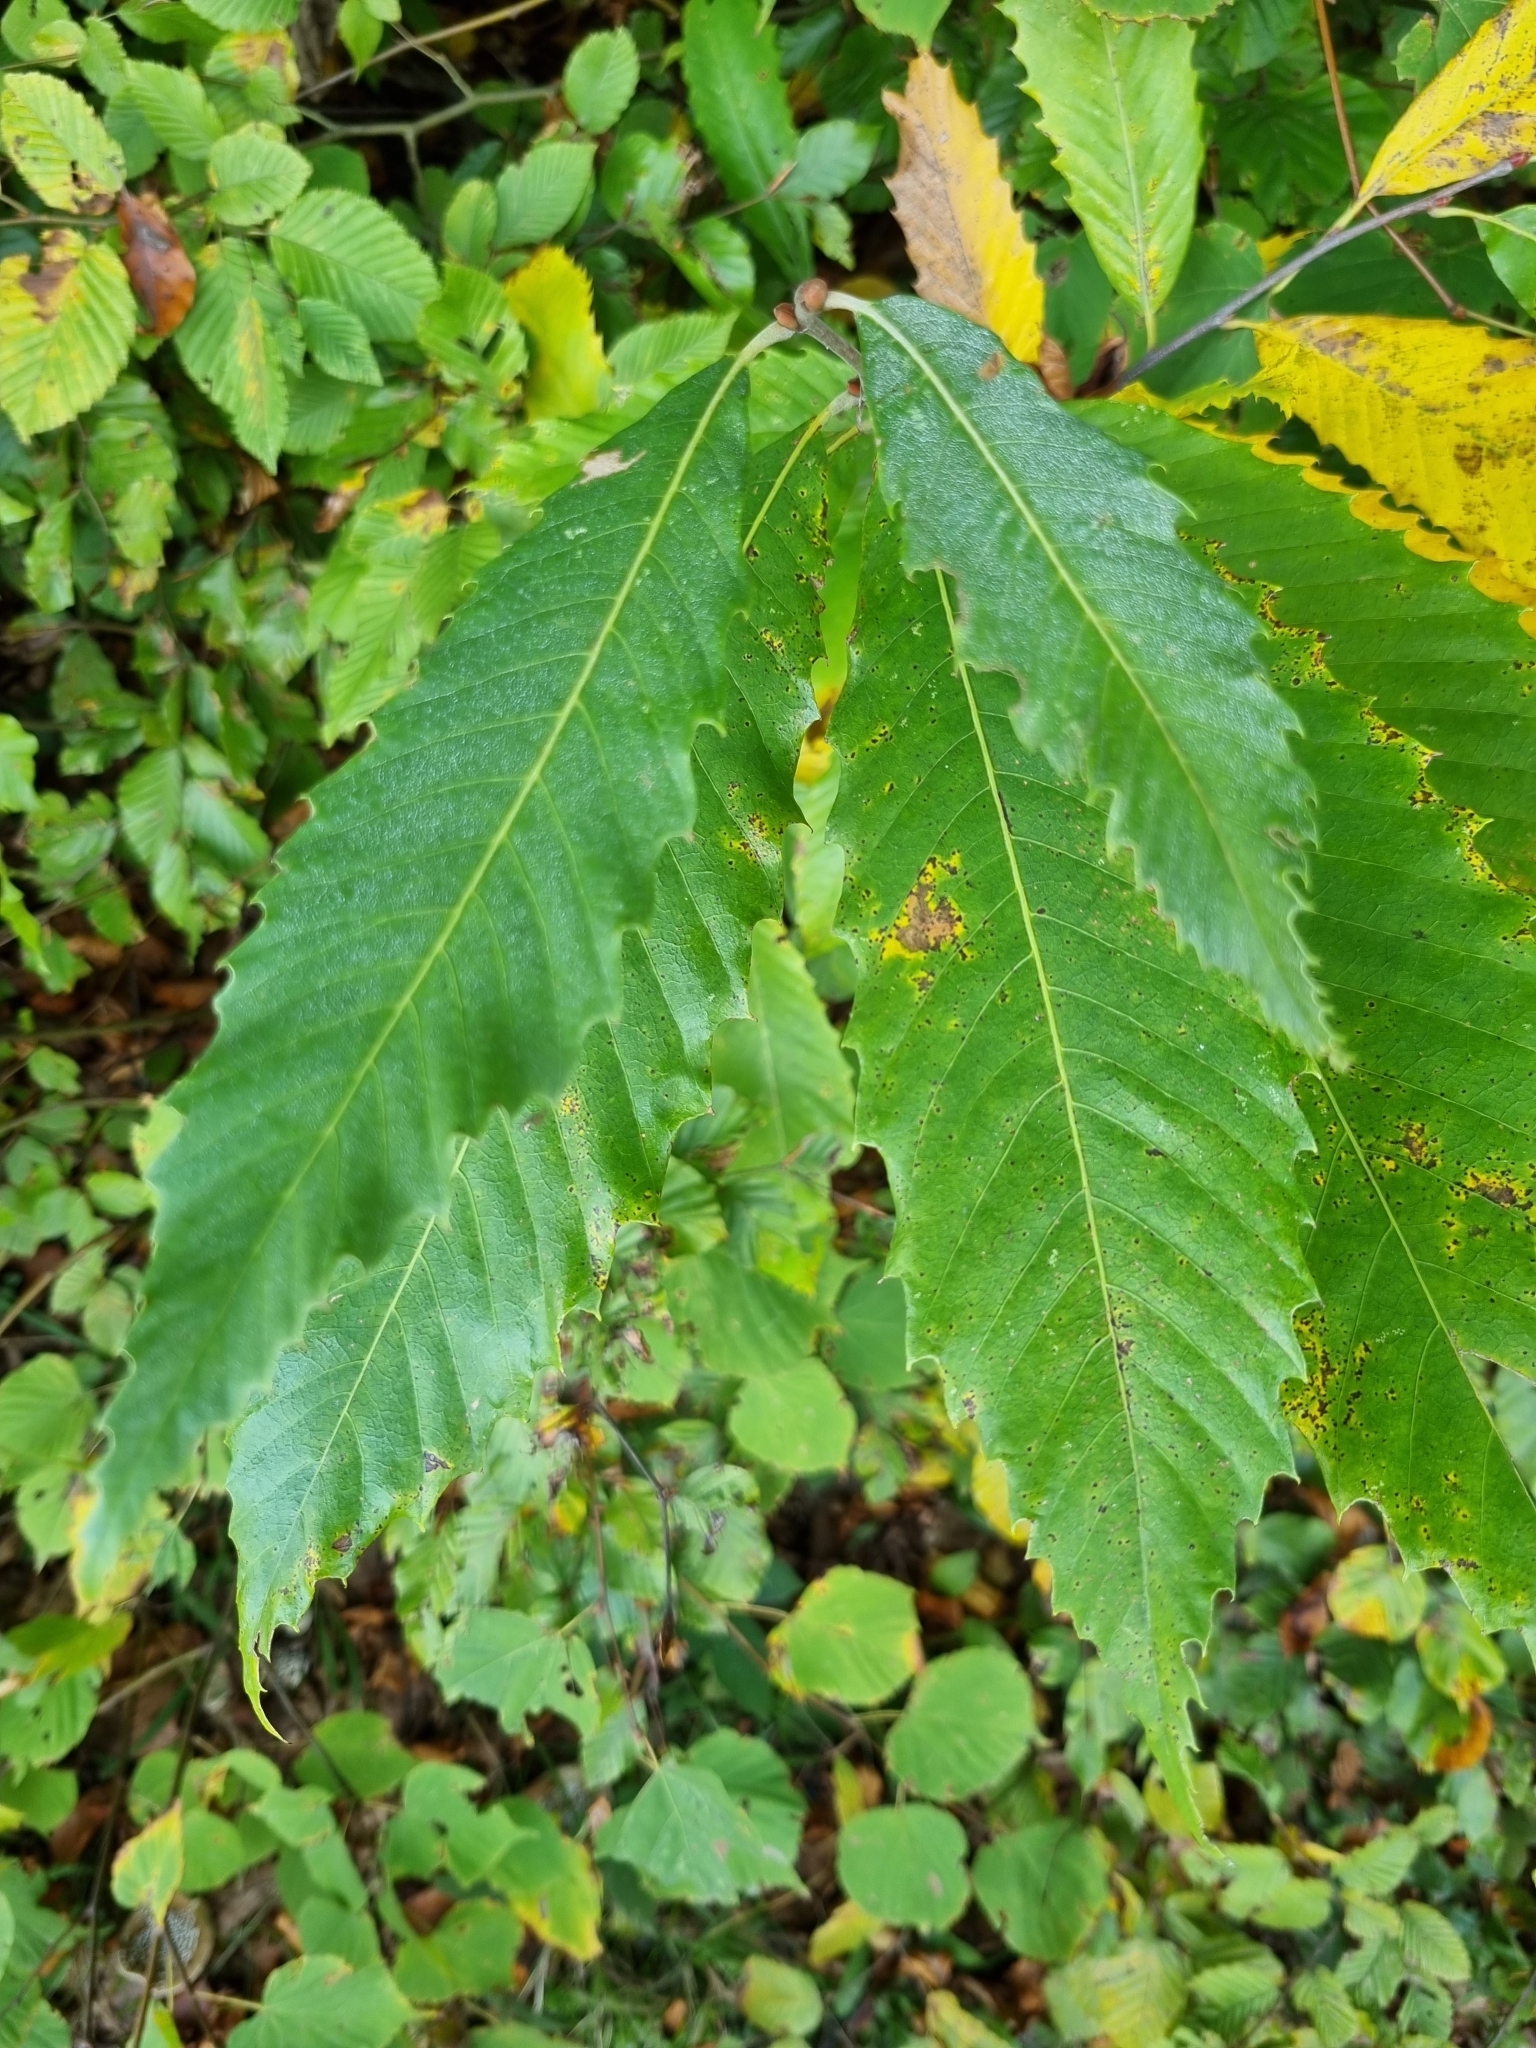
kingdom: Plantae
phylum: Tracheophyta
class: Magnoliopsida
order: Fagales
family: Fagaceae
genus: Castanea
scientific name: Castanea sativa
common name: Sweet chestnut
